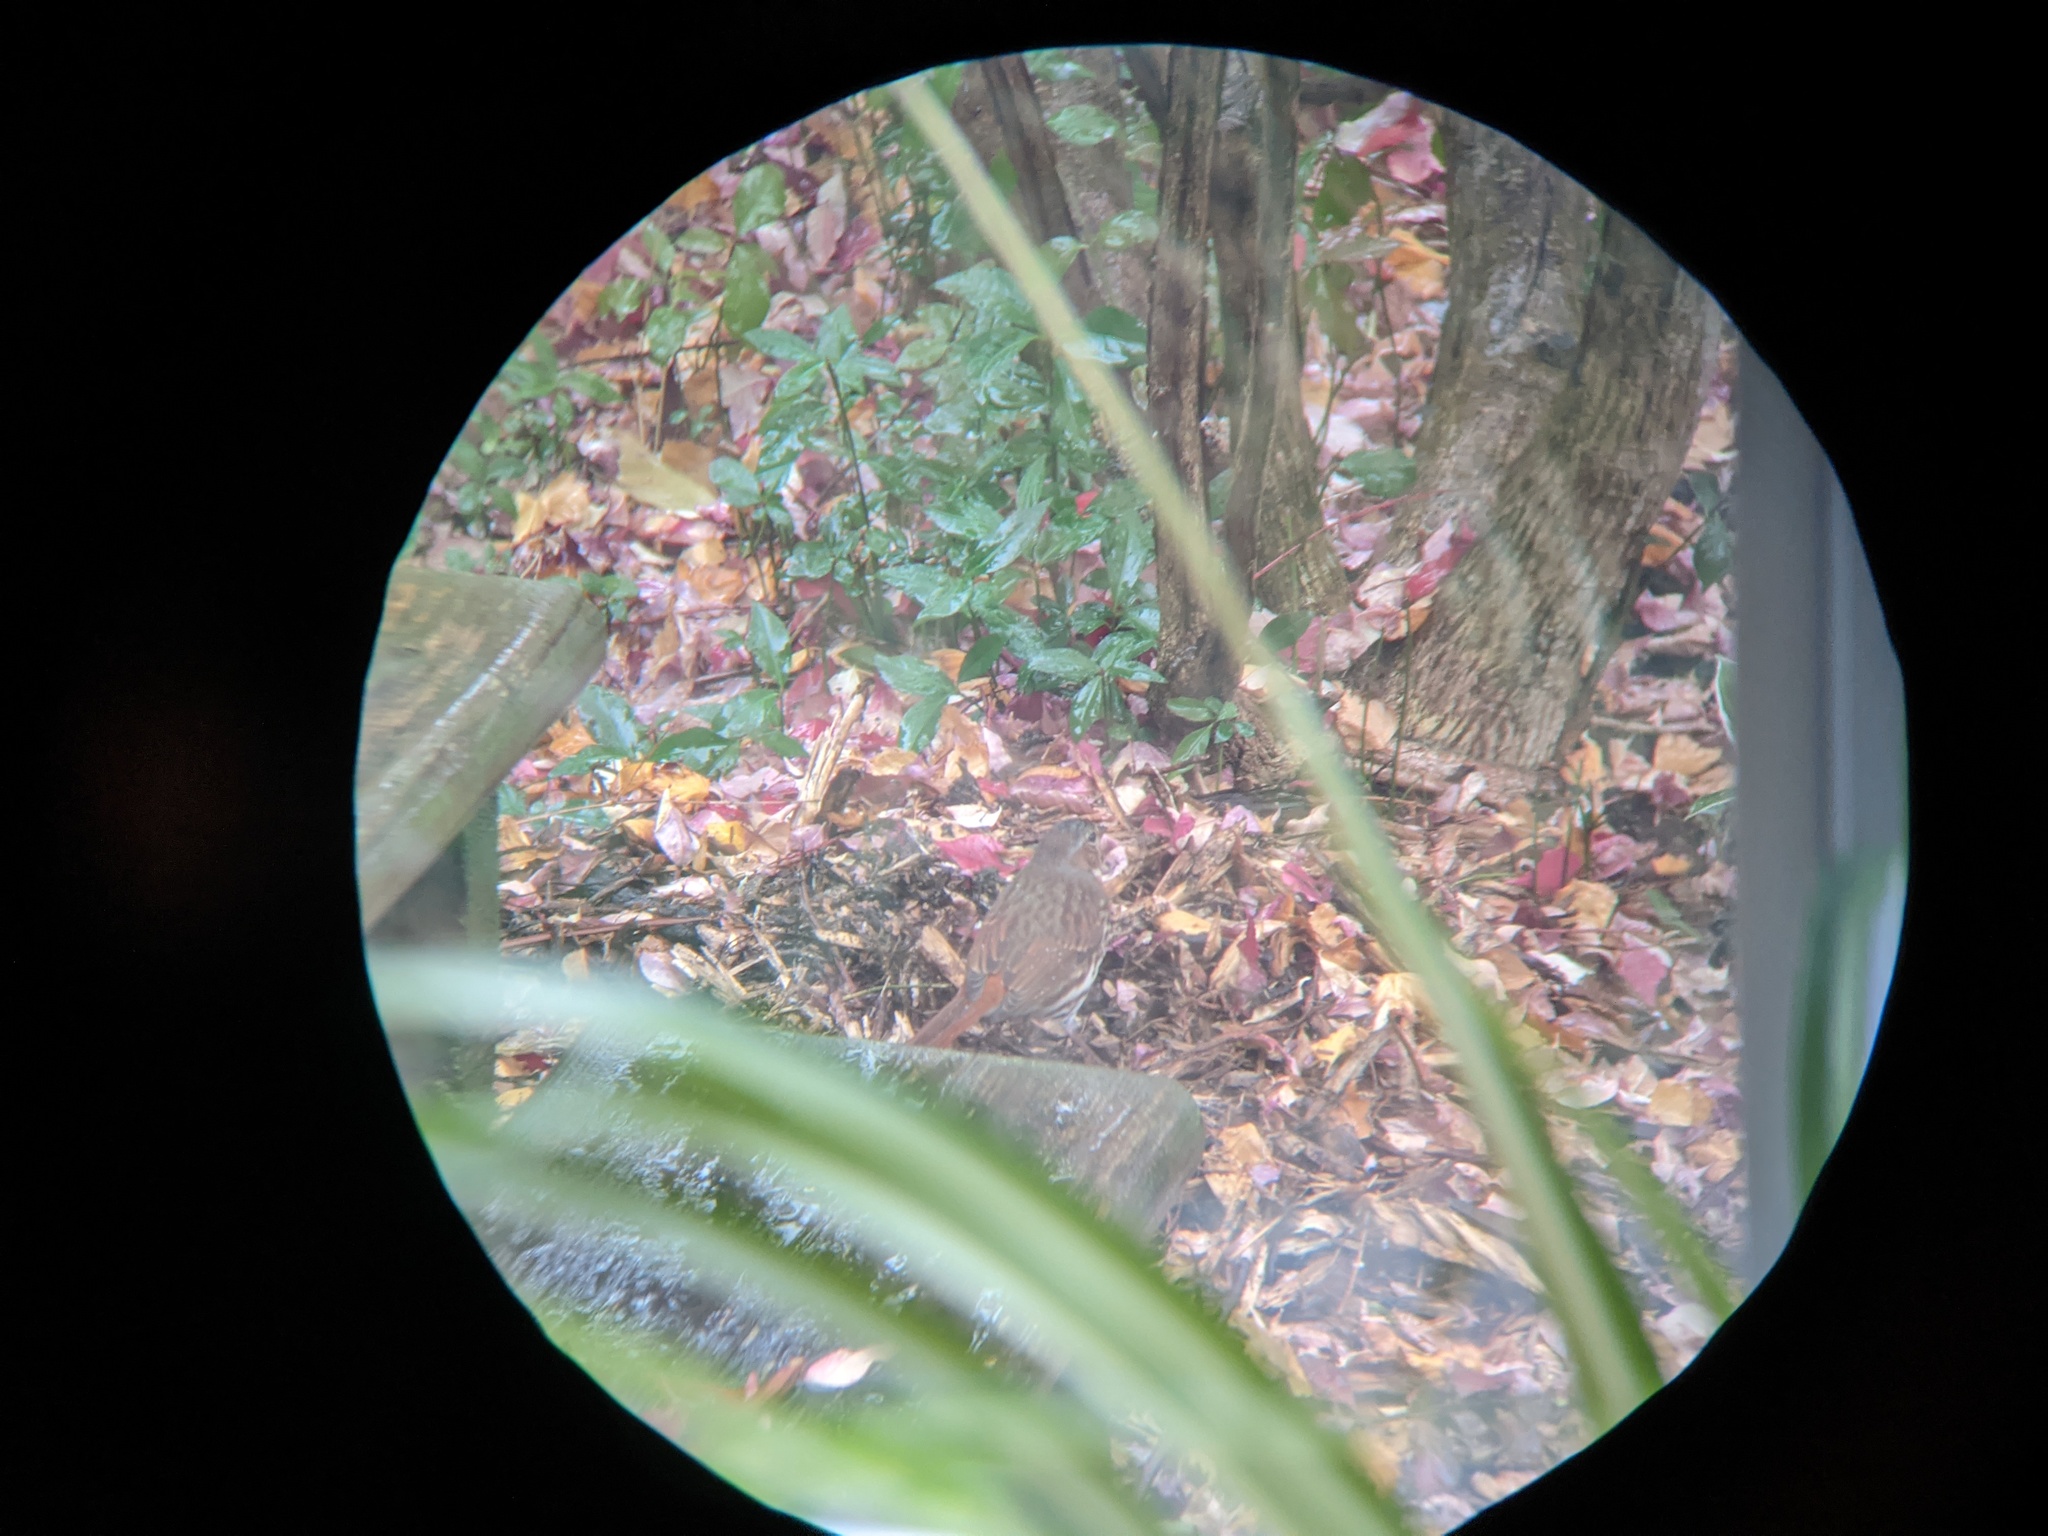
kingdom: Animalia
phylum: Chordata
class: Aves
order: Passeriformes
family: Passerellidae
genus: Passerella
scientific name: Passerella iliaca
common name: Fox sparrow
